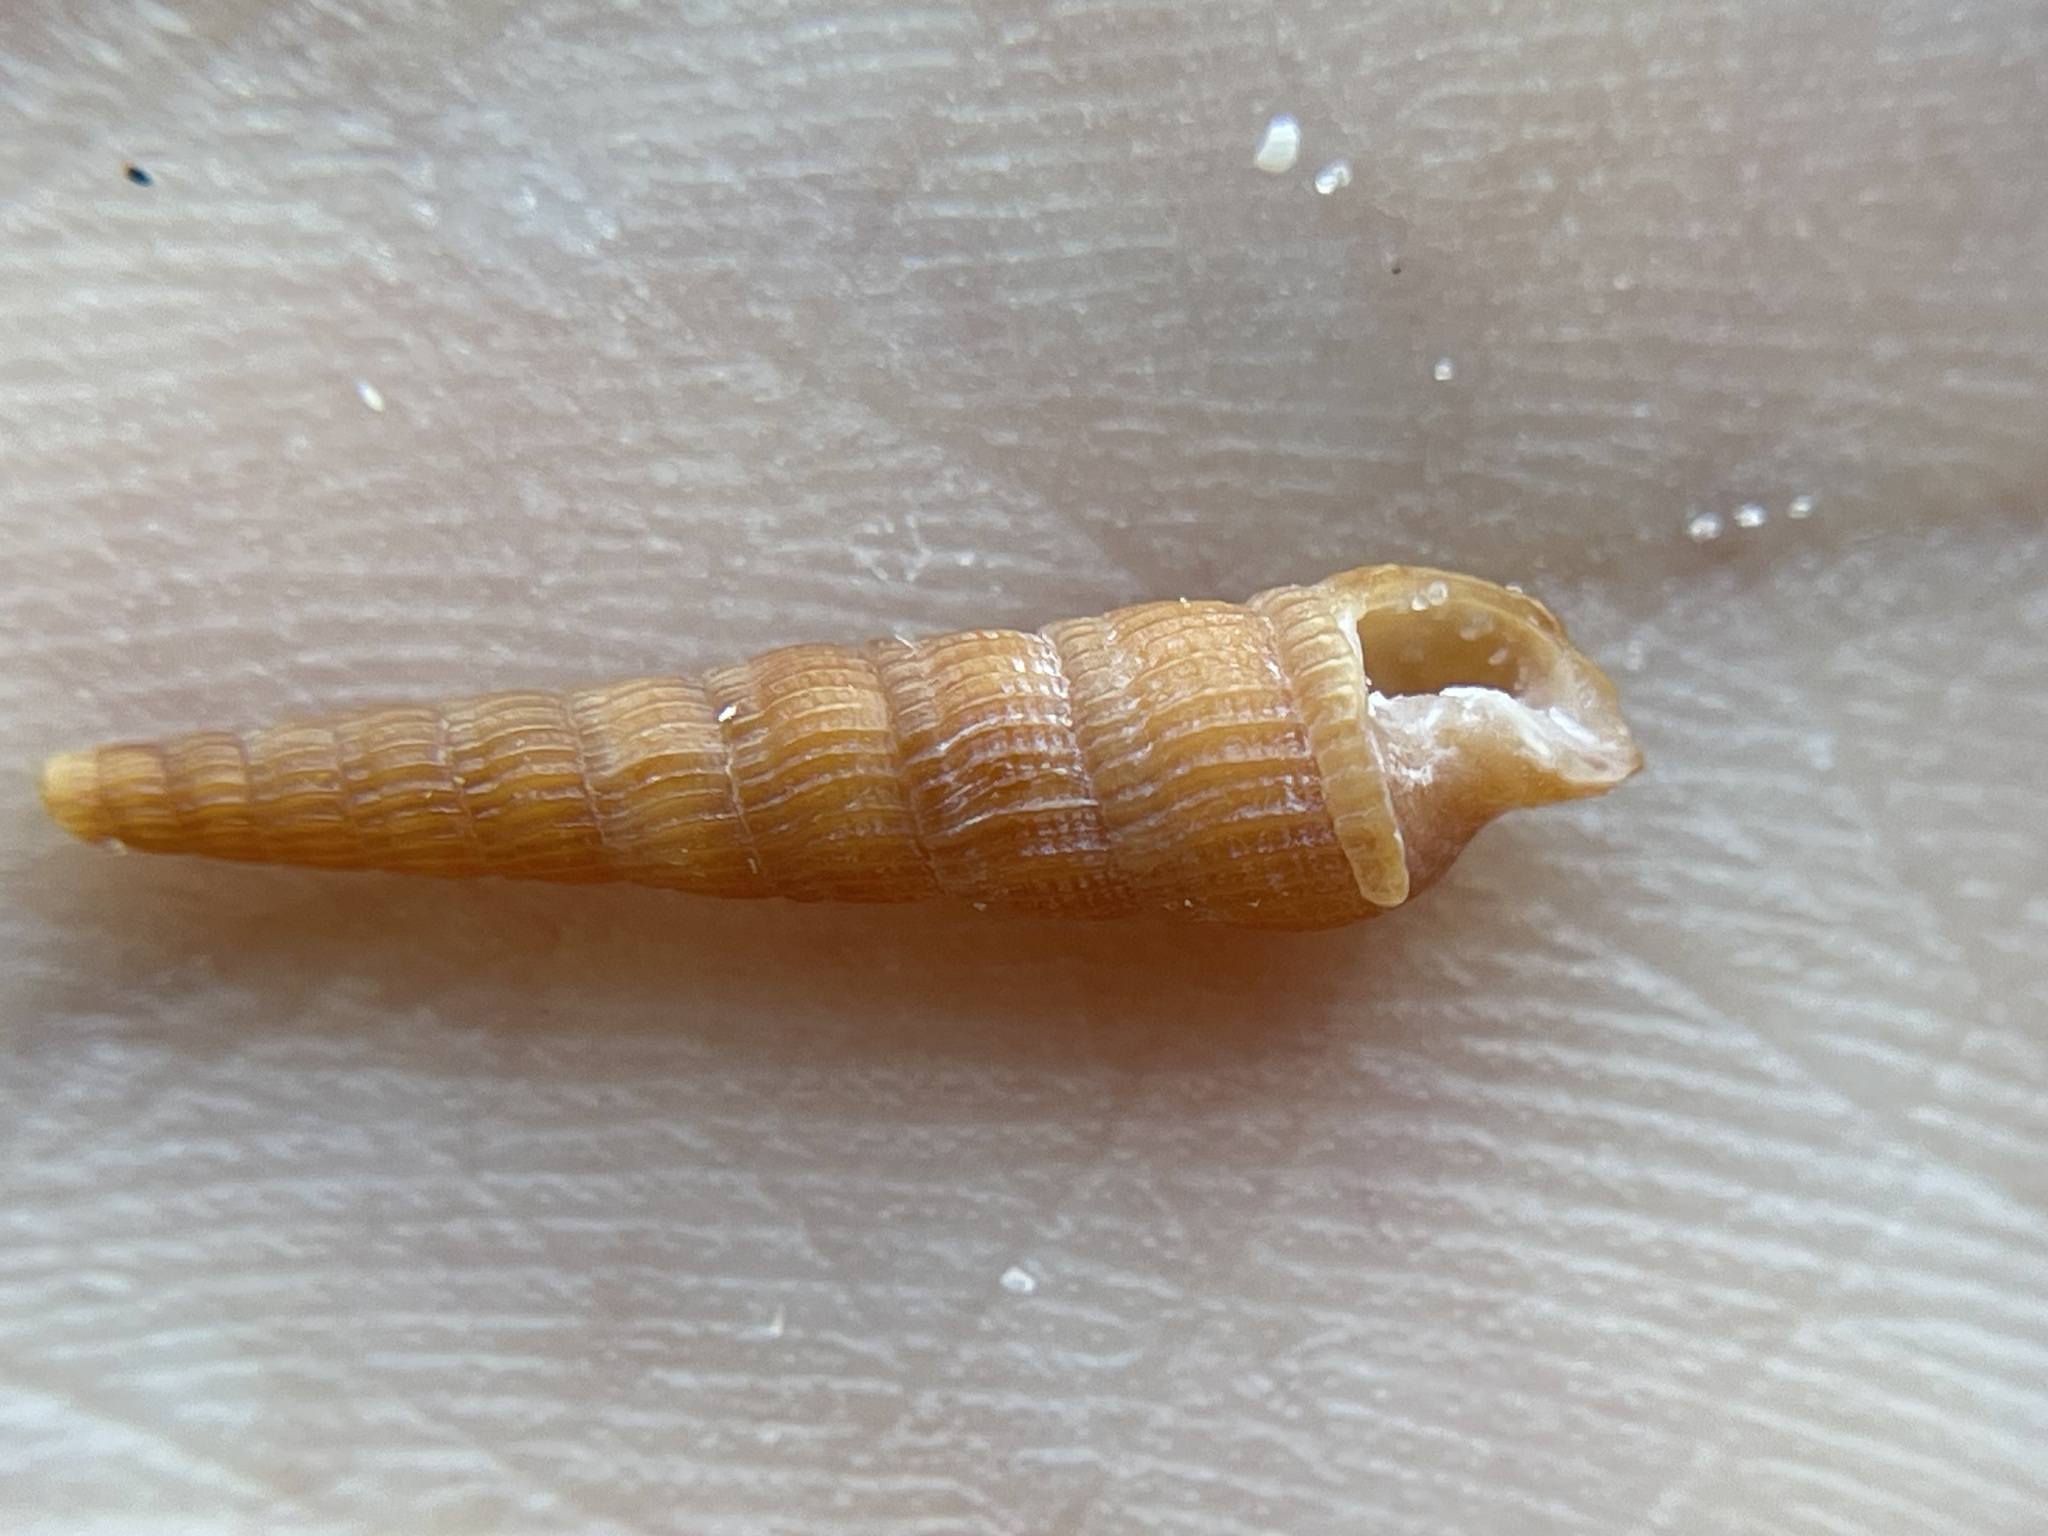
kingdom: Animalia
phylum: Mollusca
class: Gastropoda
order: Neogastropoda
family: Terebridae
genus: Neoterebra
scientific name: Neoterebra protexta
